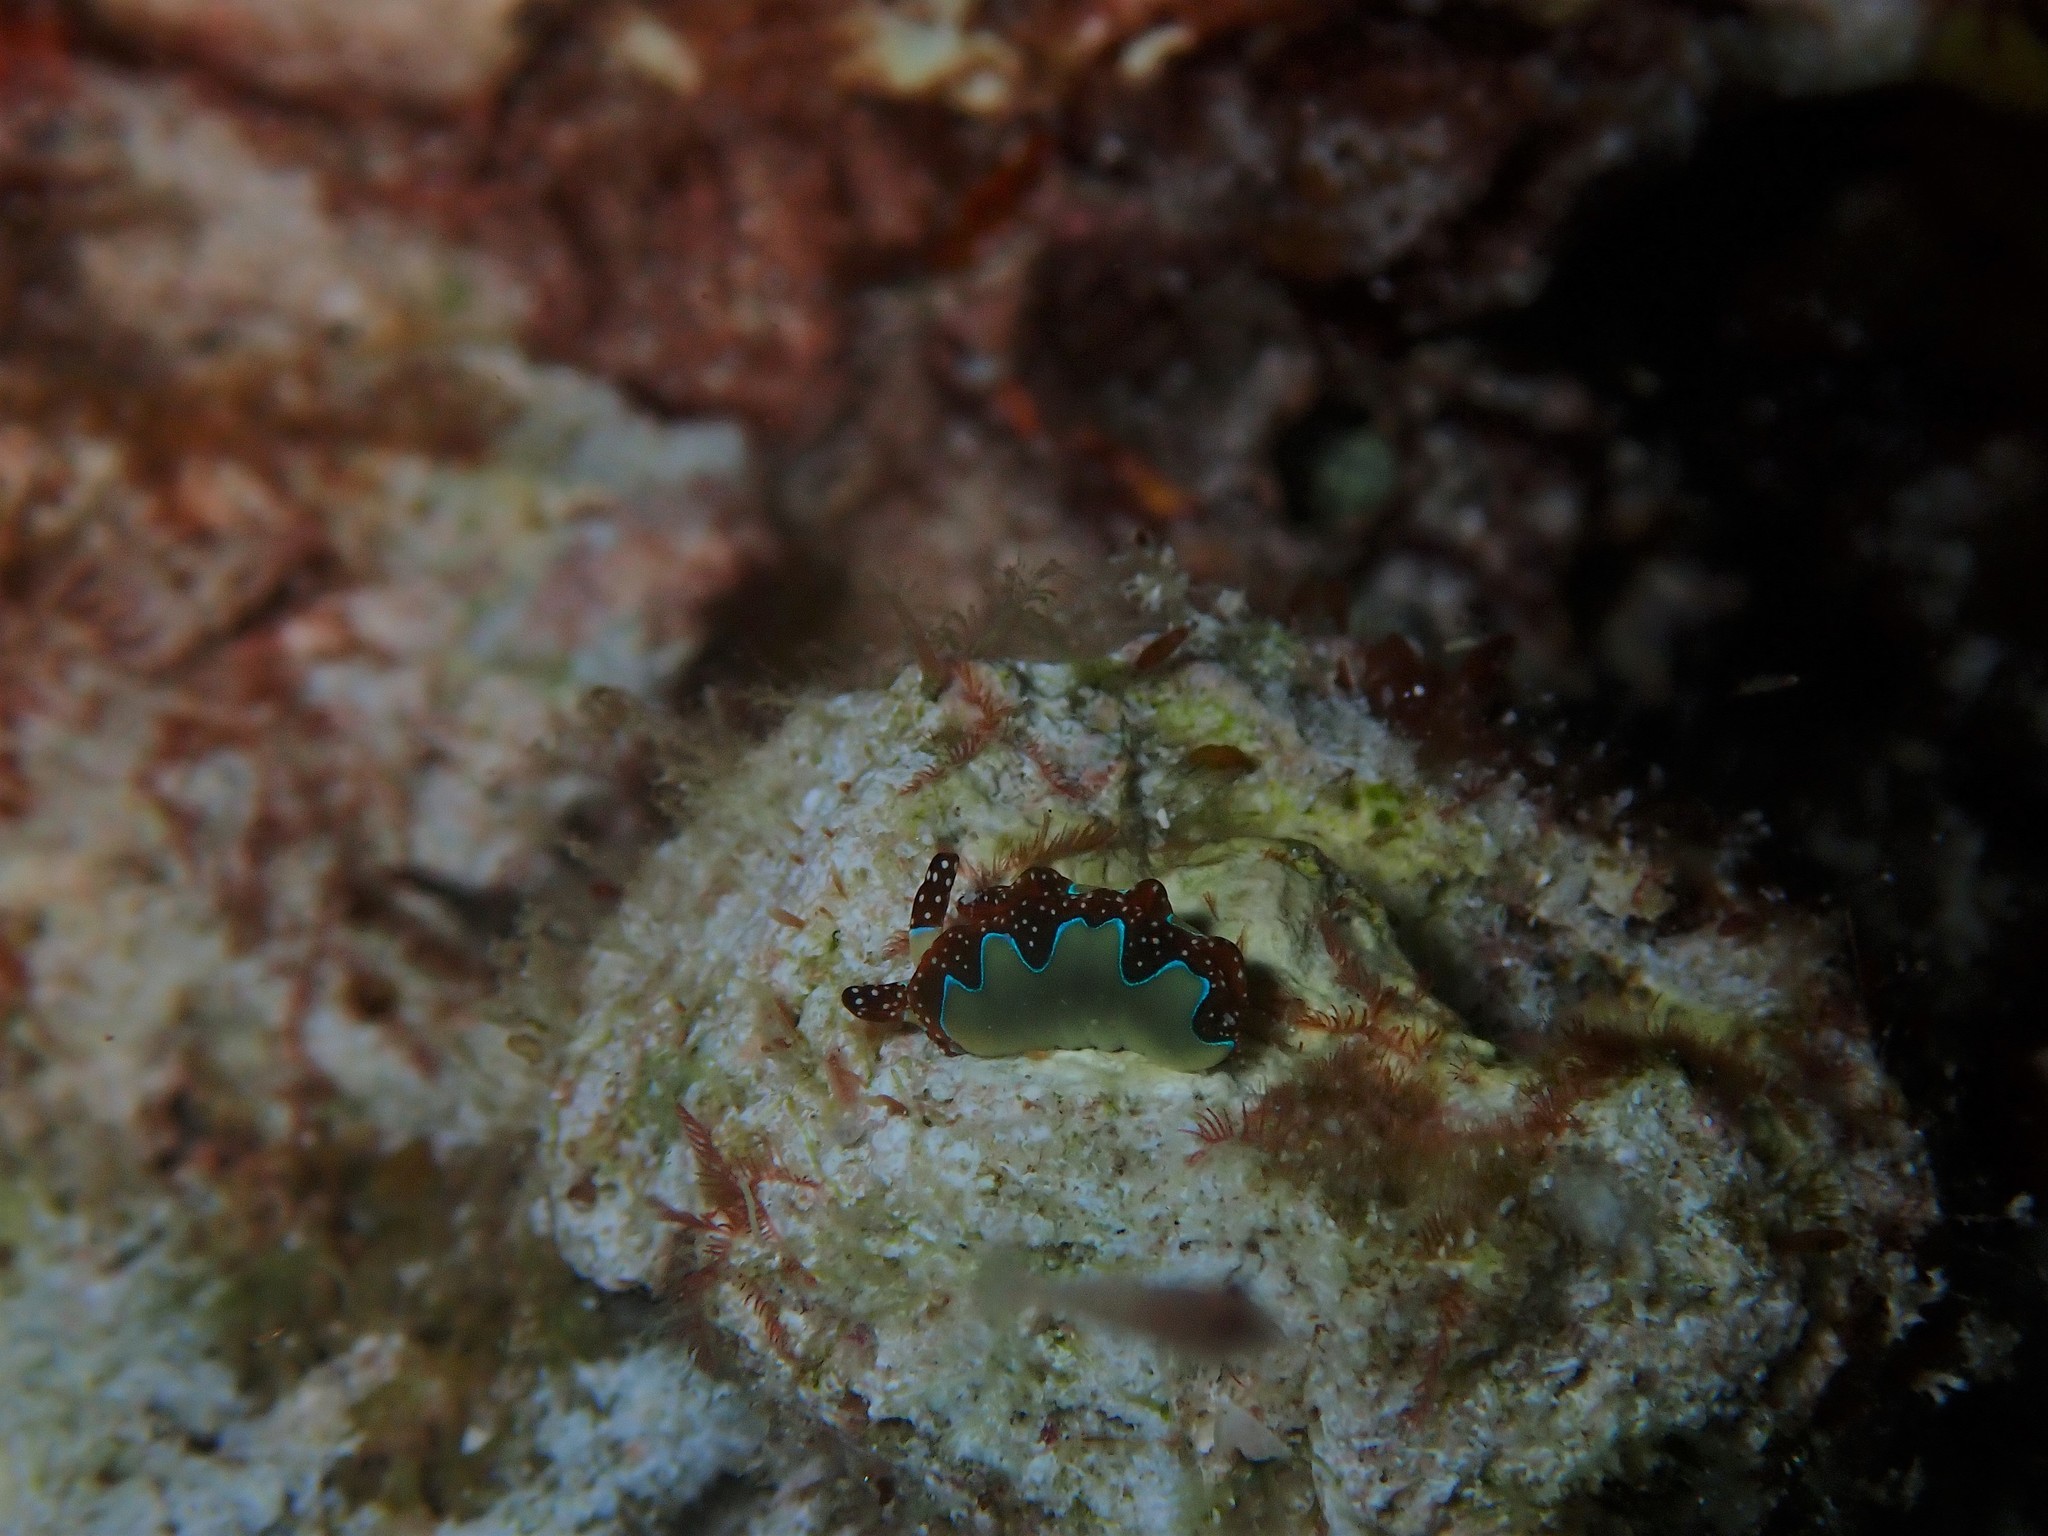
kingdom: Animalia
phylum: Mollusca
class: Gastropoda
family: Plakobranchidae
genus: Thuridilla
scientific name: Thuridilla moebii
